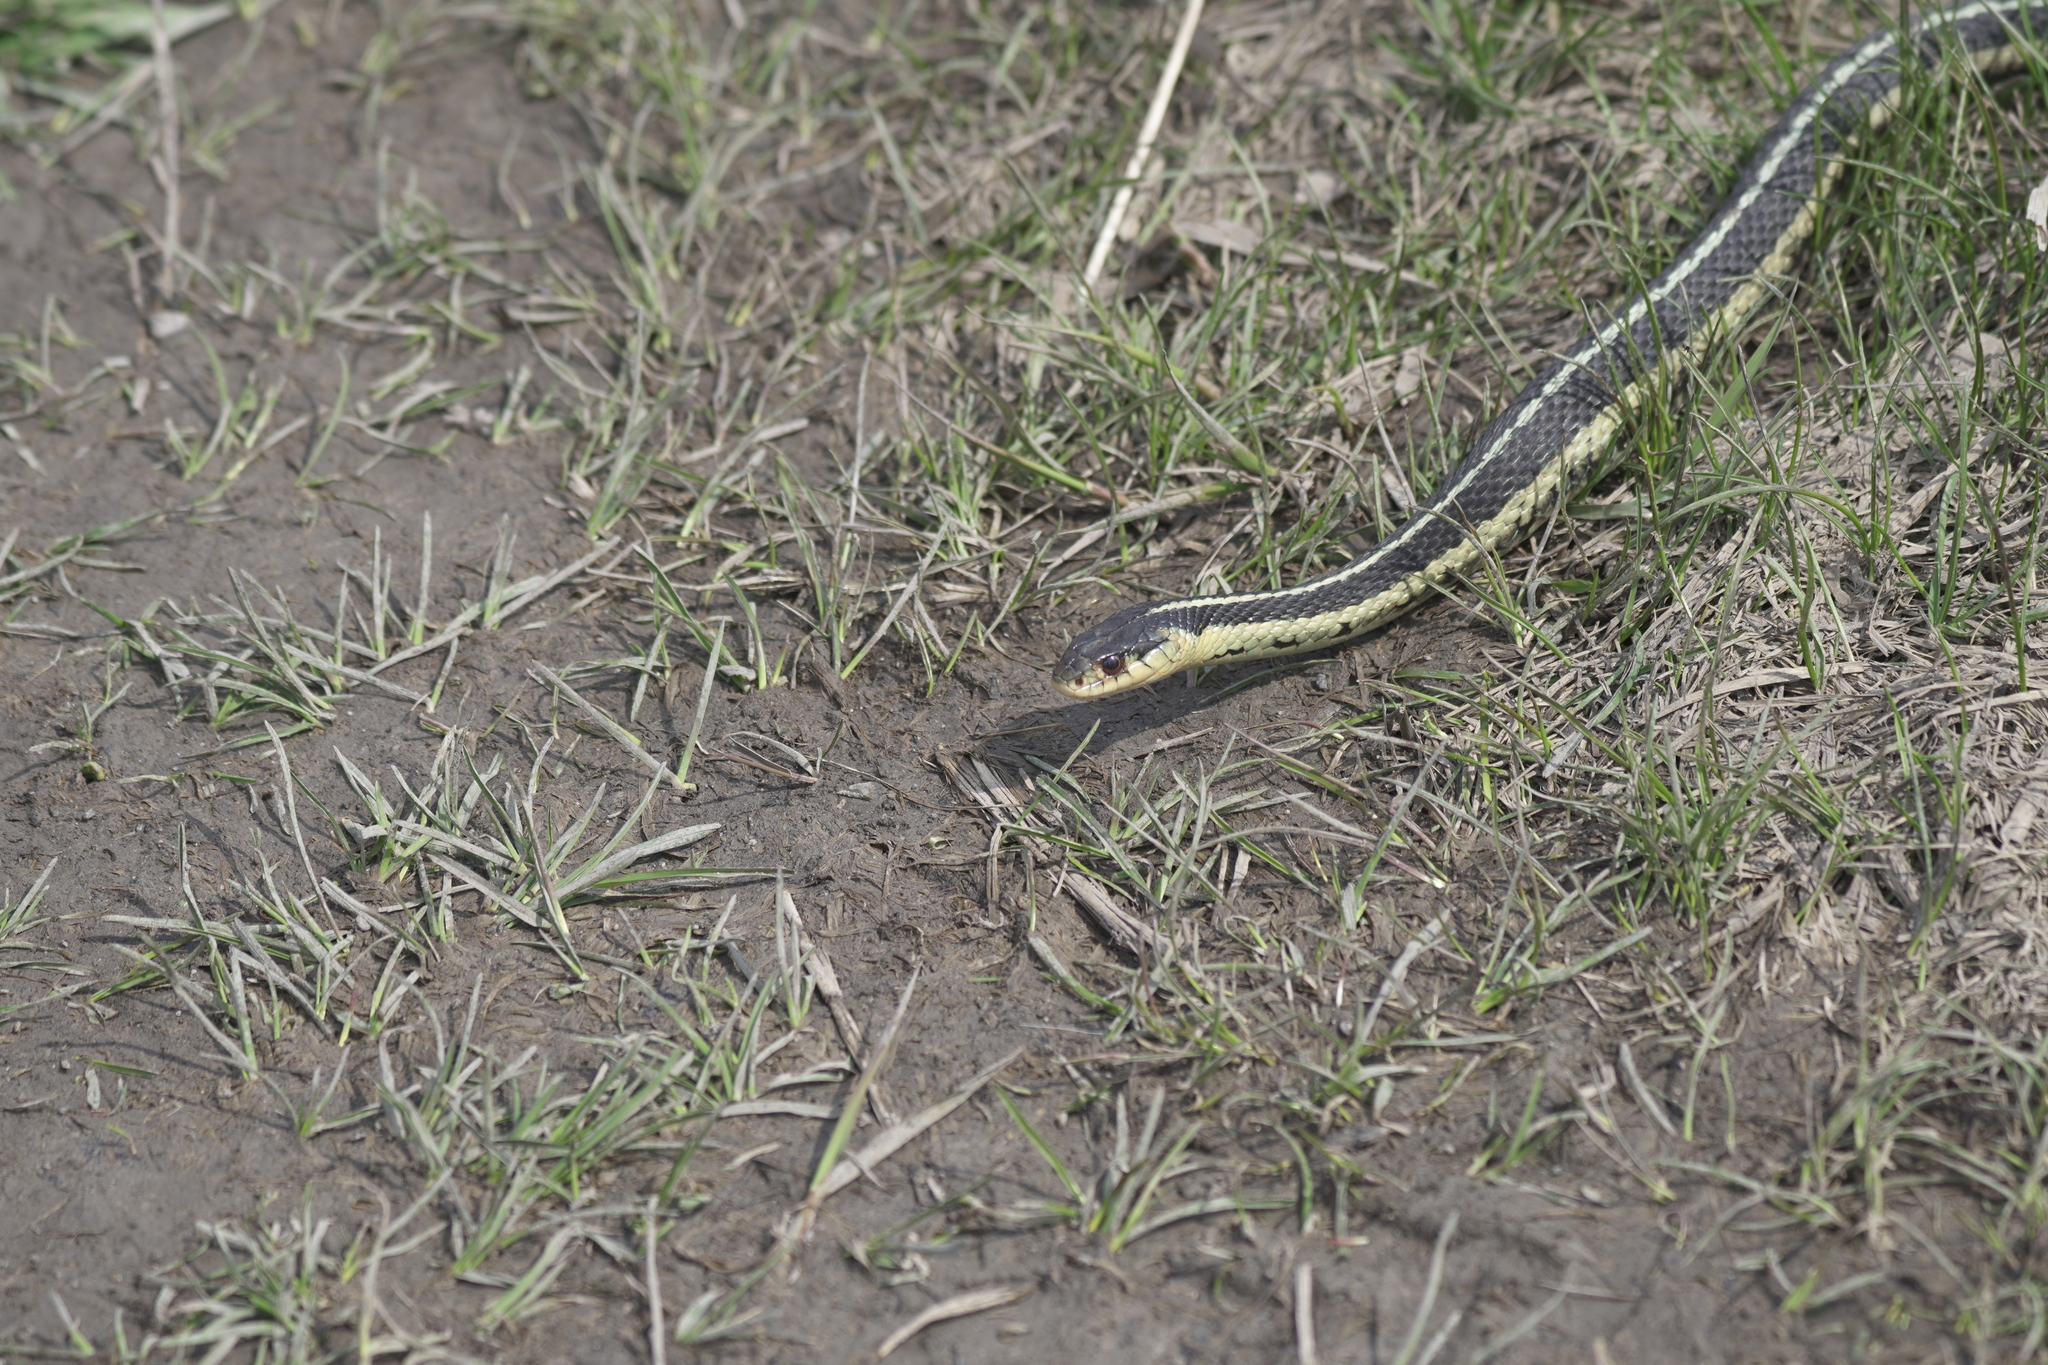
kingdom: Animalia
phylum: Chordata
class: Squamata
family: Colubridae
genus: Thamnophis
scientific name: Thamnophis sirtalis
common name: Common garter snake
